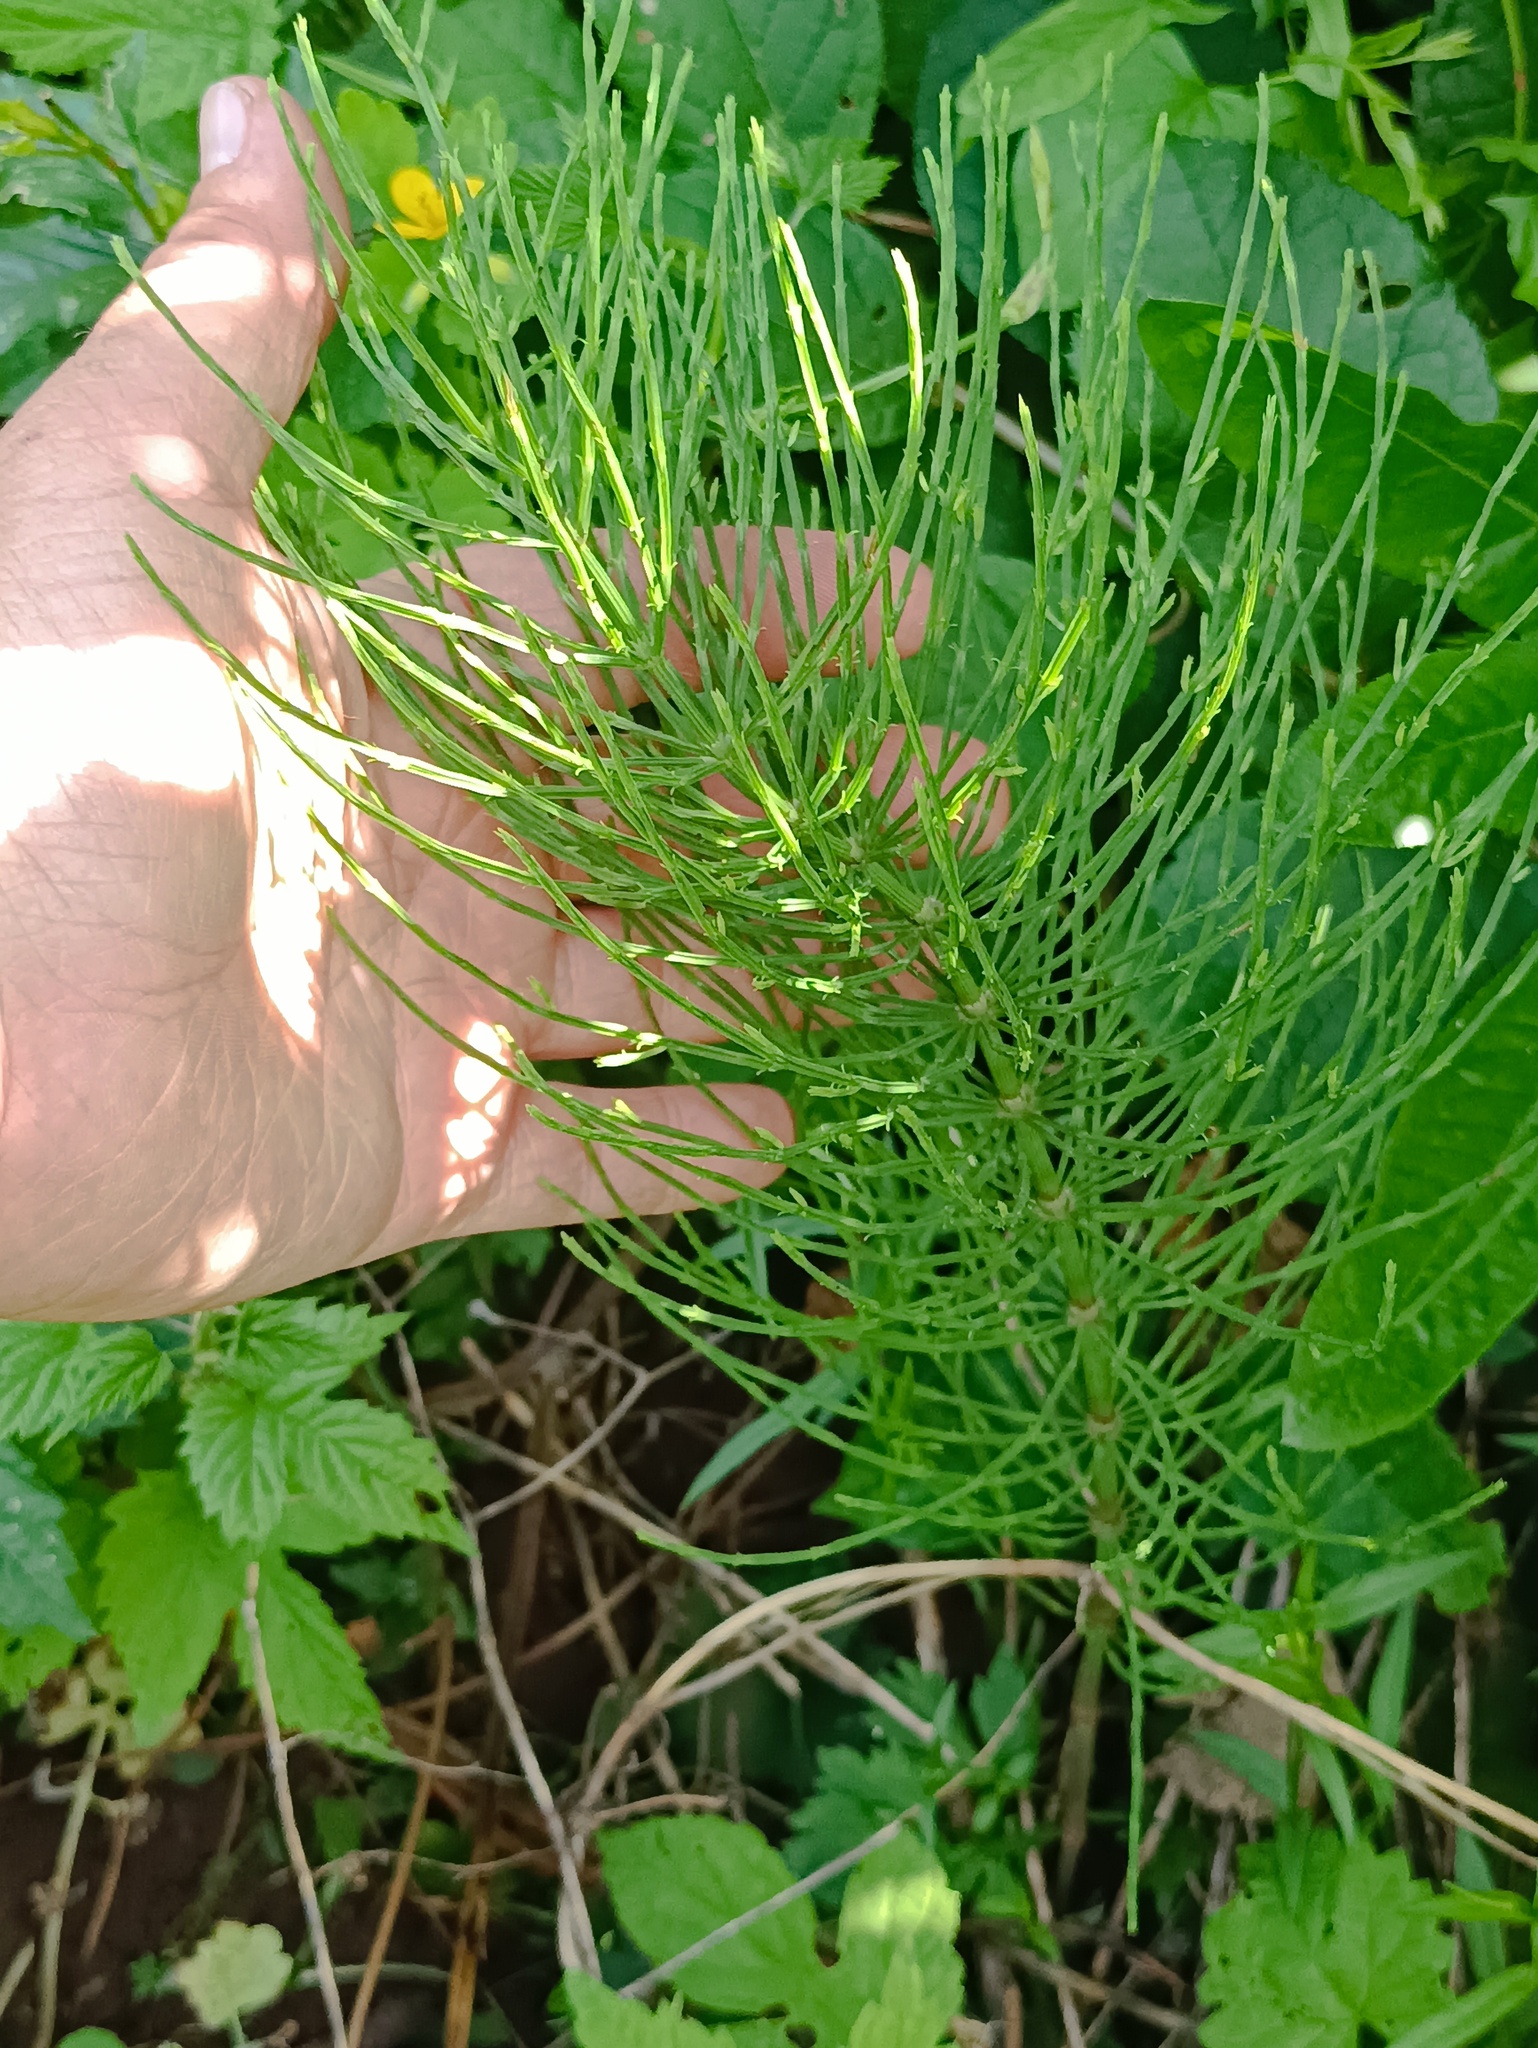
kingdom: Plantae
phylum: Tracheophyta
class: Polypodiopsida
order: Equisetales
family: Equisetaceae
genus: Equisetum
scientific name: Equisetum arvense
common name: Field horsetail
